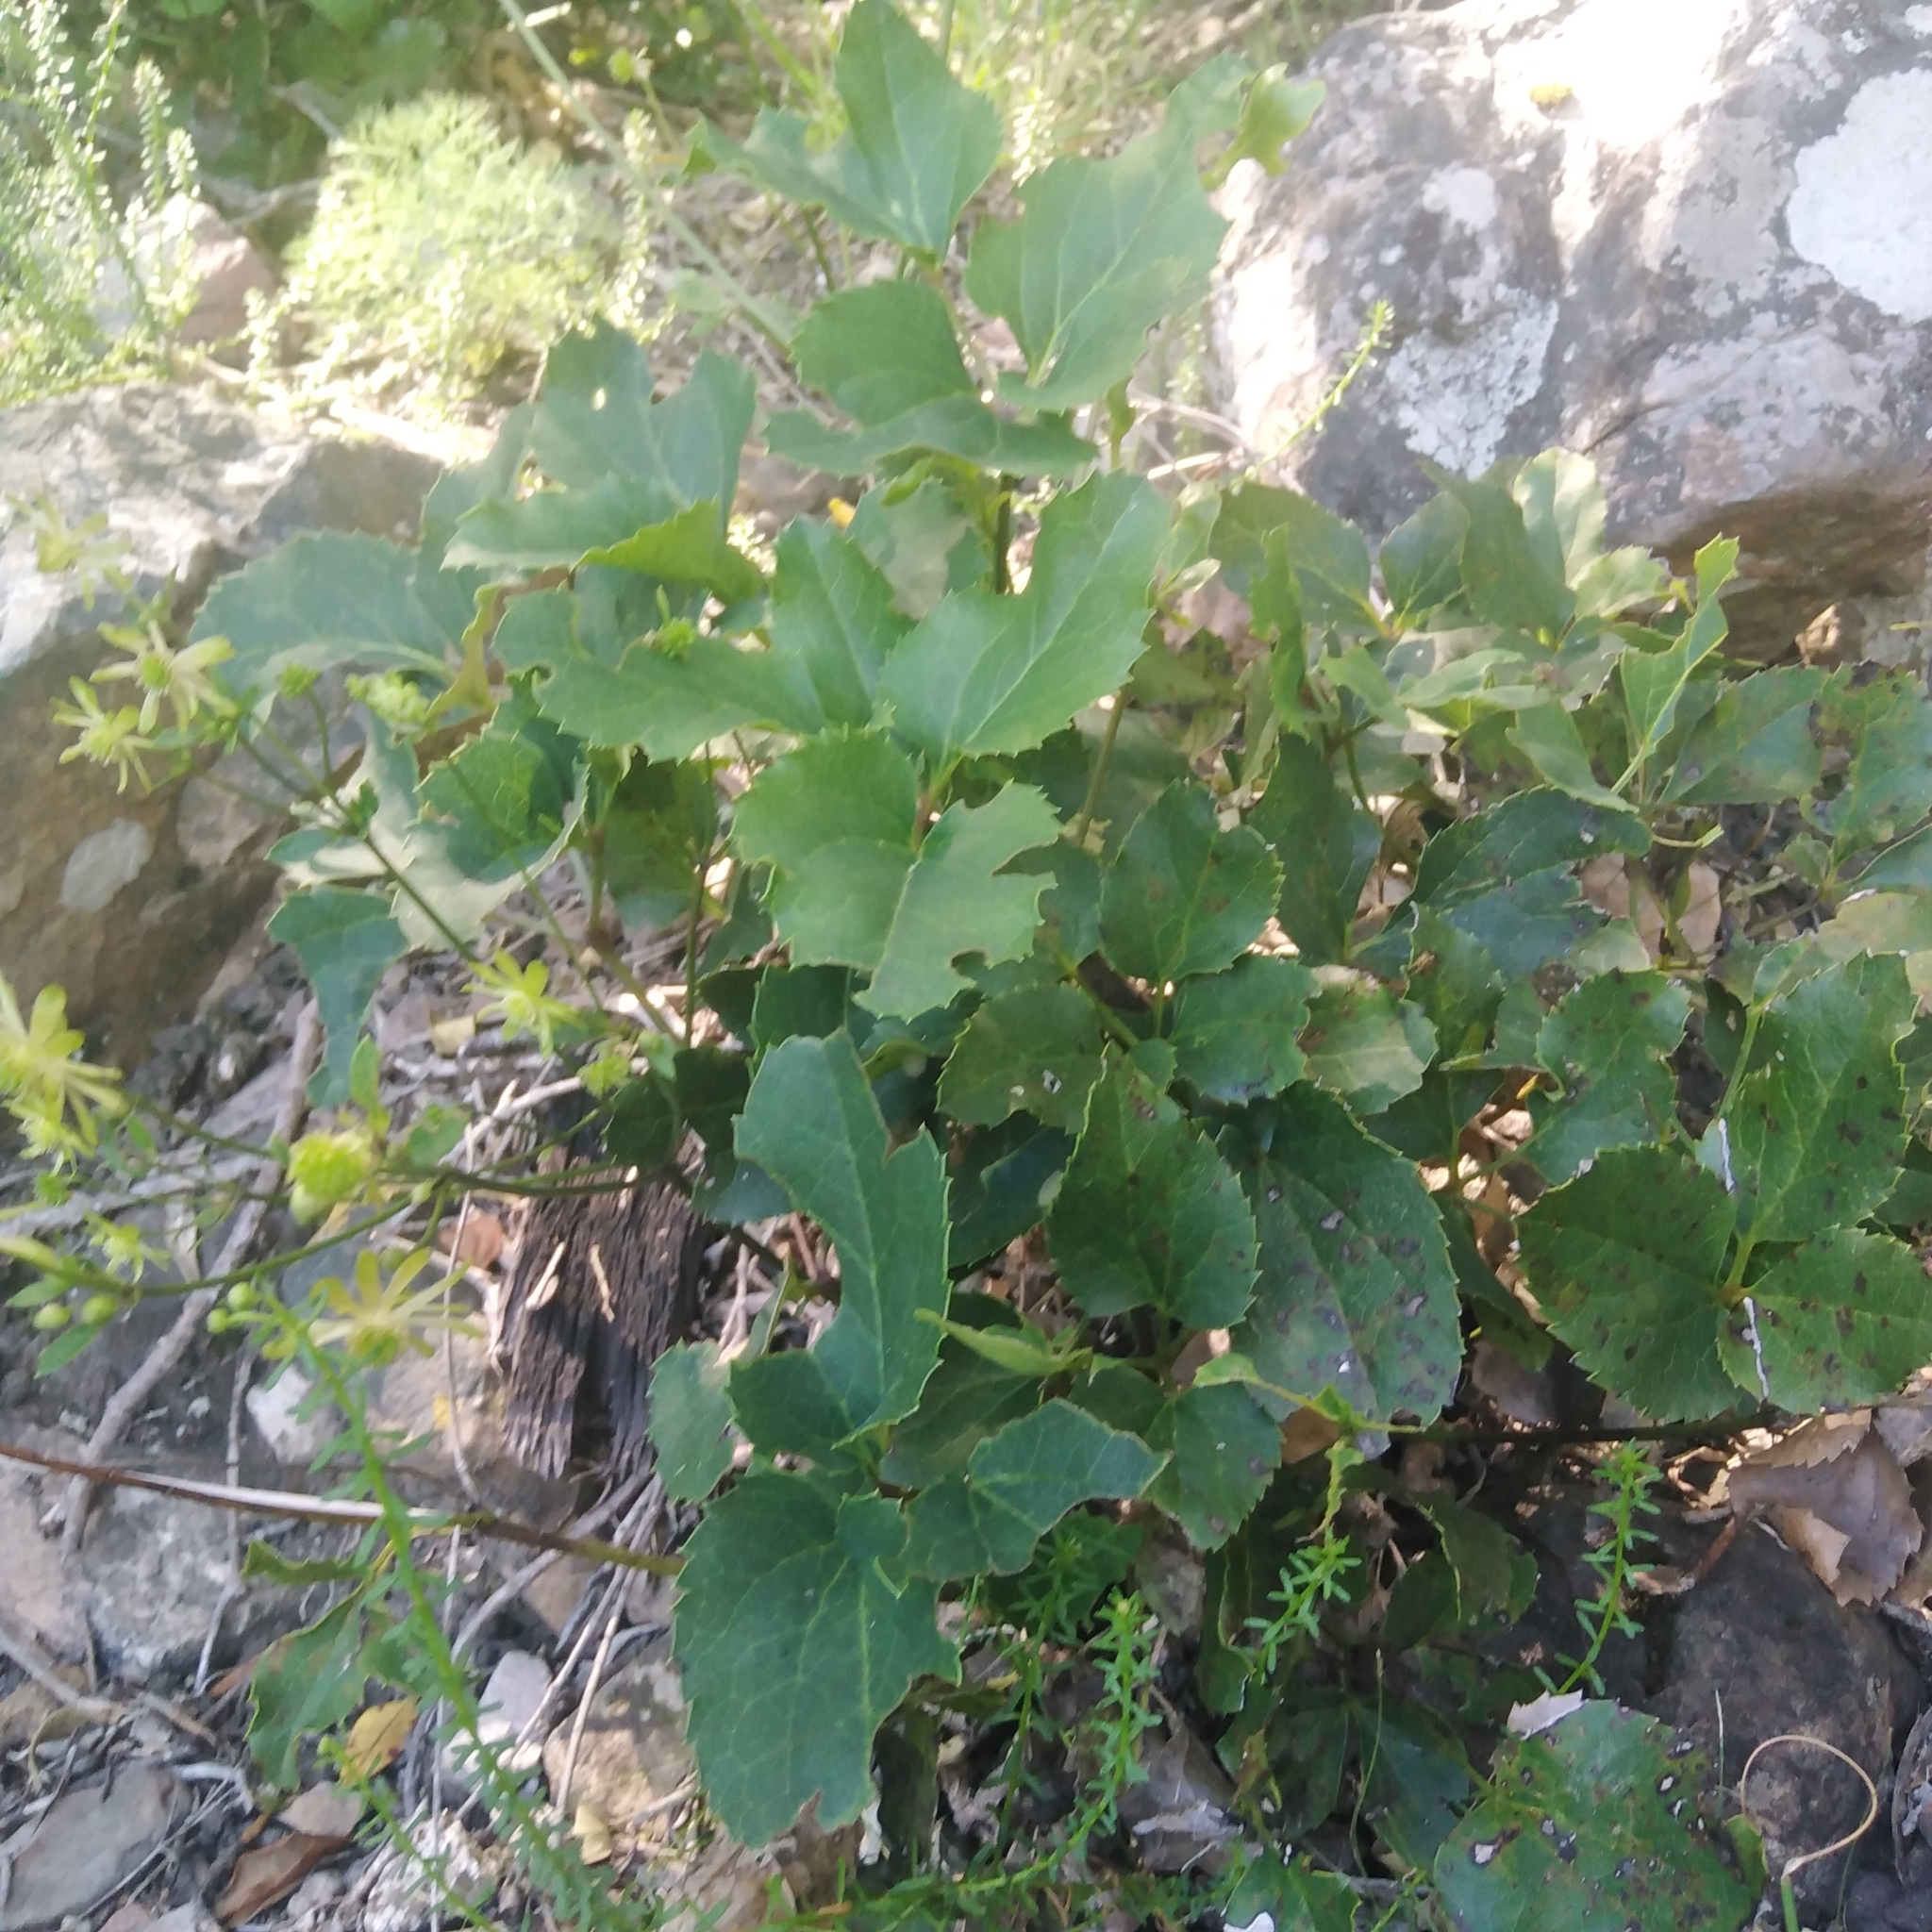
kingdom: Plantae
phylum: Tracheophyta
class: Magnoliopsida
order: Ranunculales
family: Ranunculaceae
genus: Knowltonia
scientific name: Knowltonia vesicatoria
